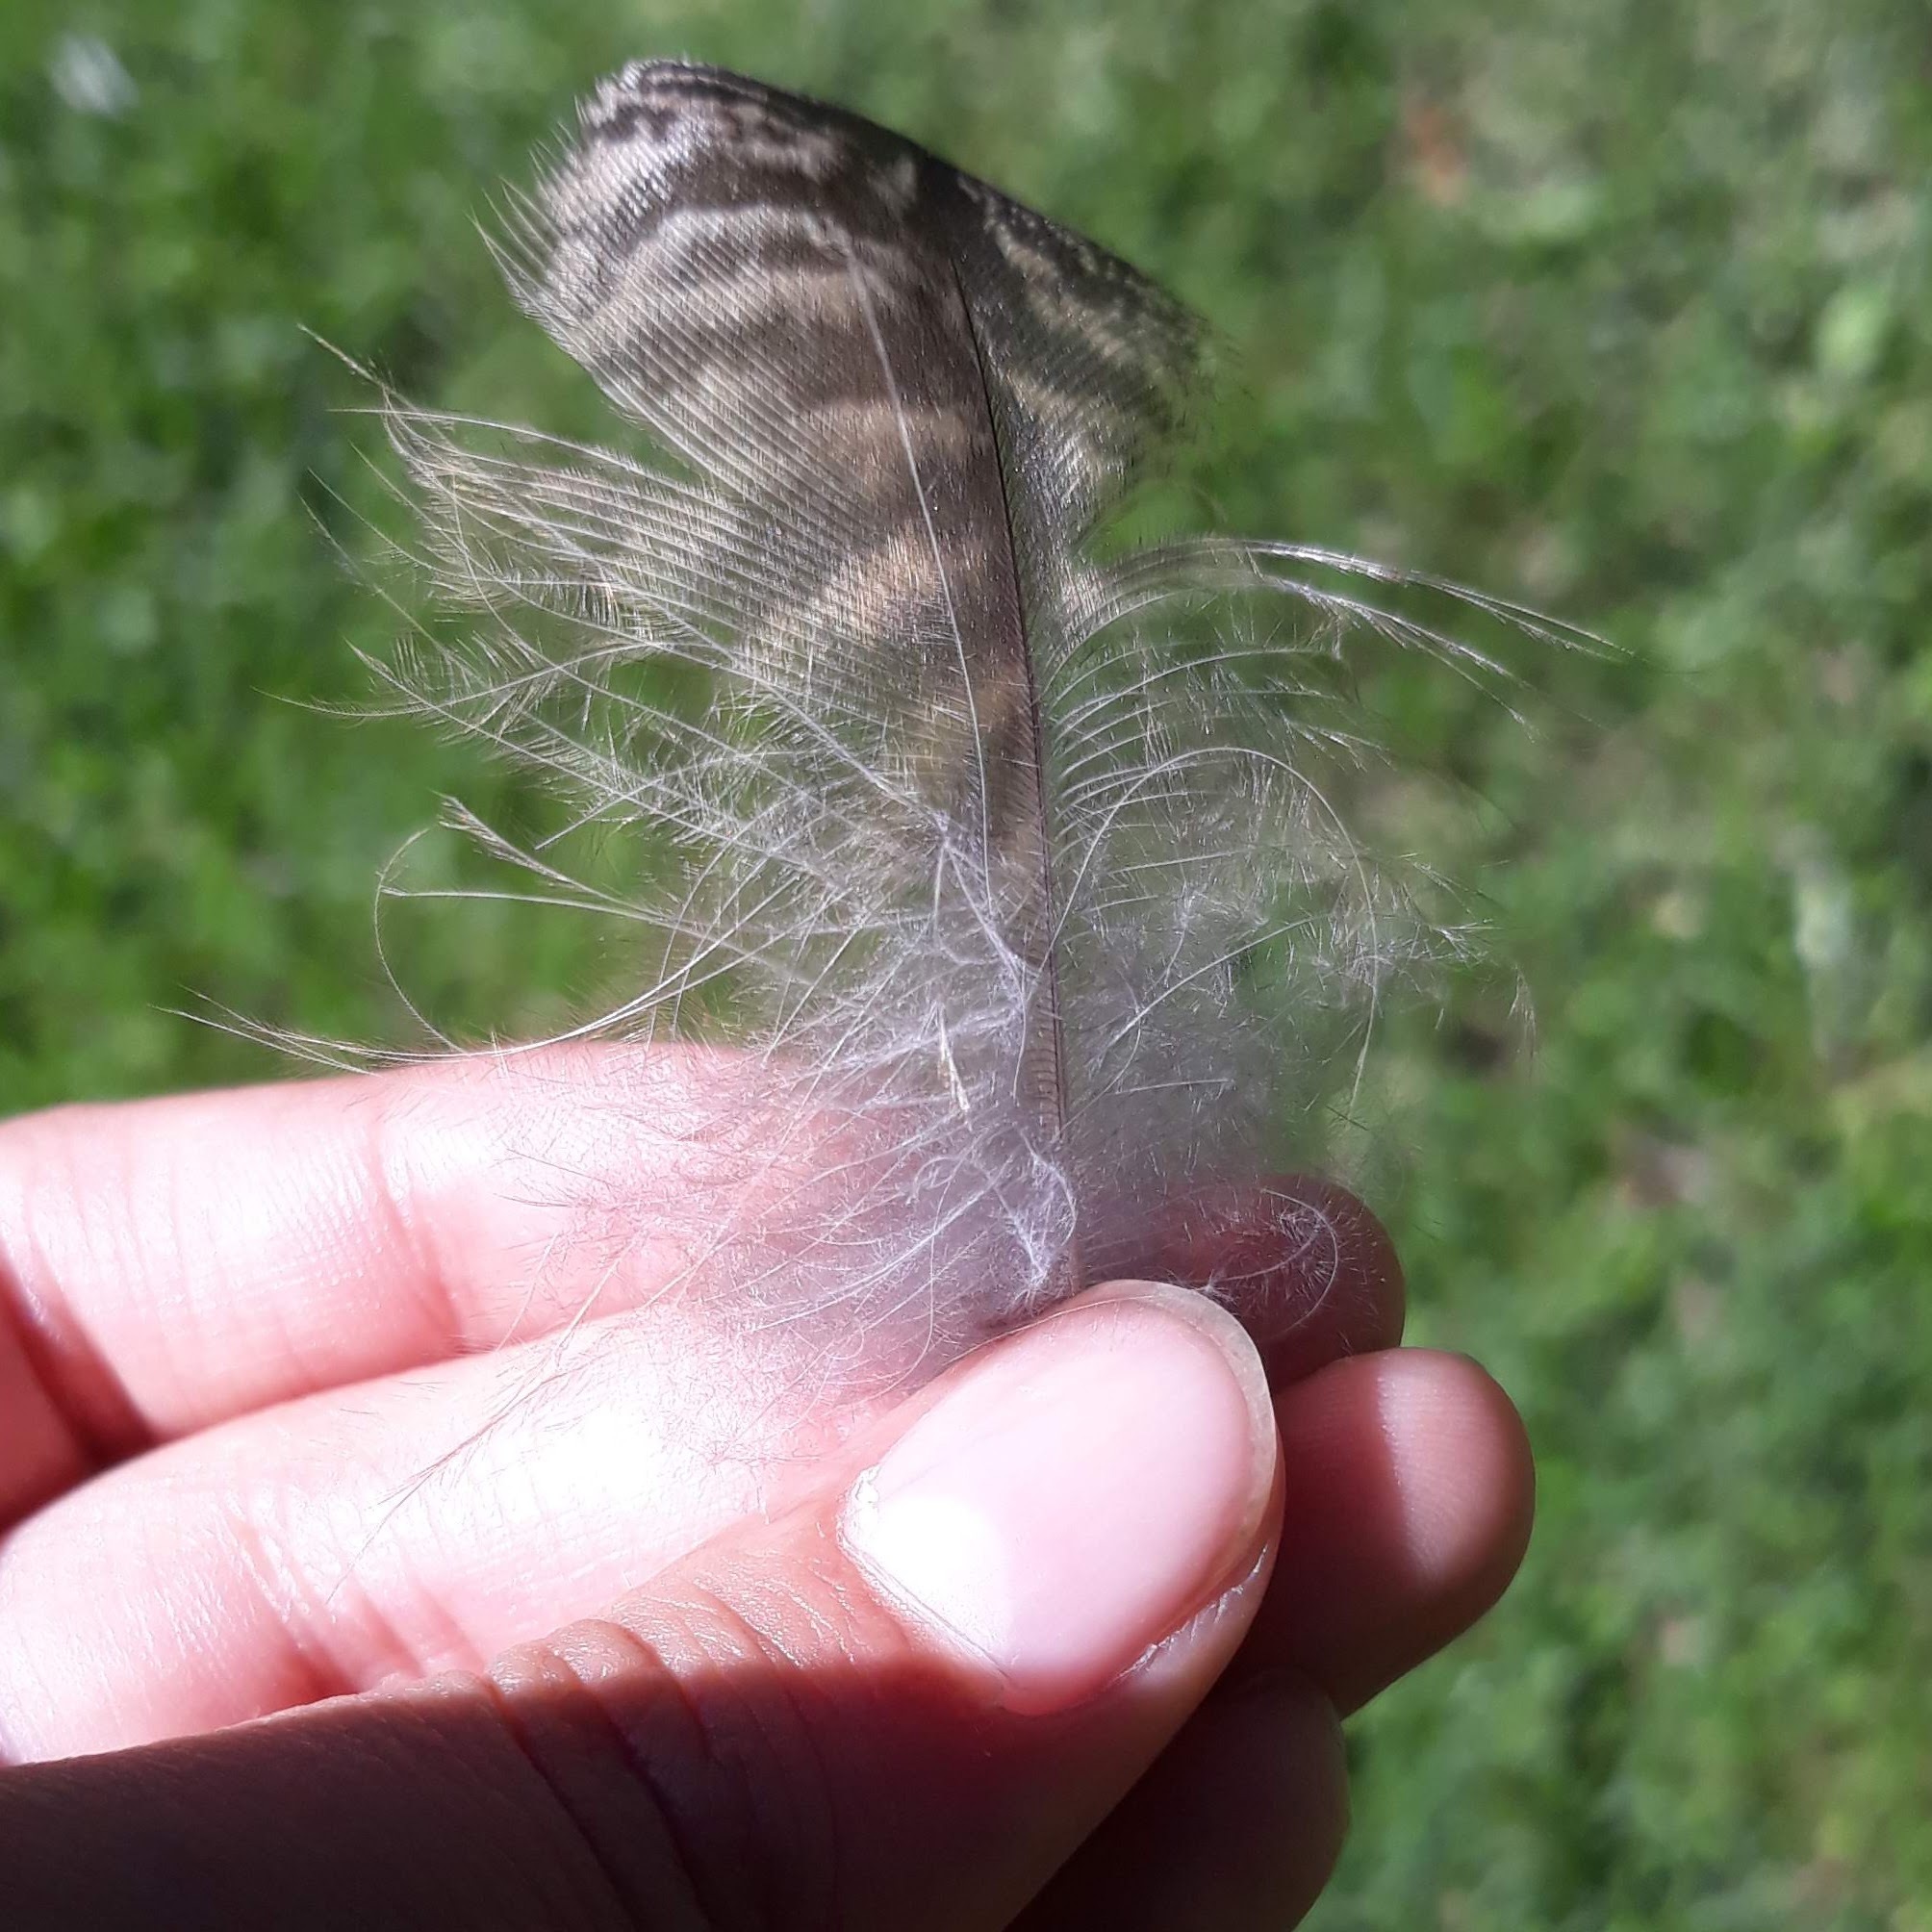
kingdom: Animalia
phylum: Chordata
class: Aves
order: Strigiformes
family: Strigidae
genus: Bubo
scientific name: Bubo virginianus
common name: Great horned owl
